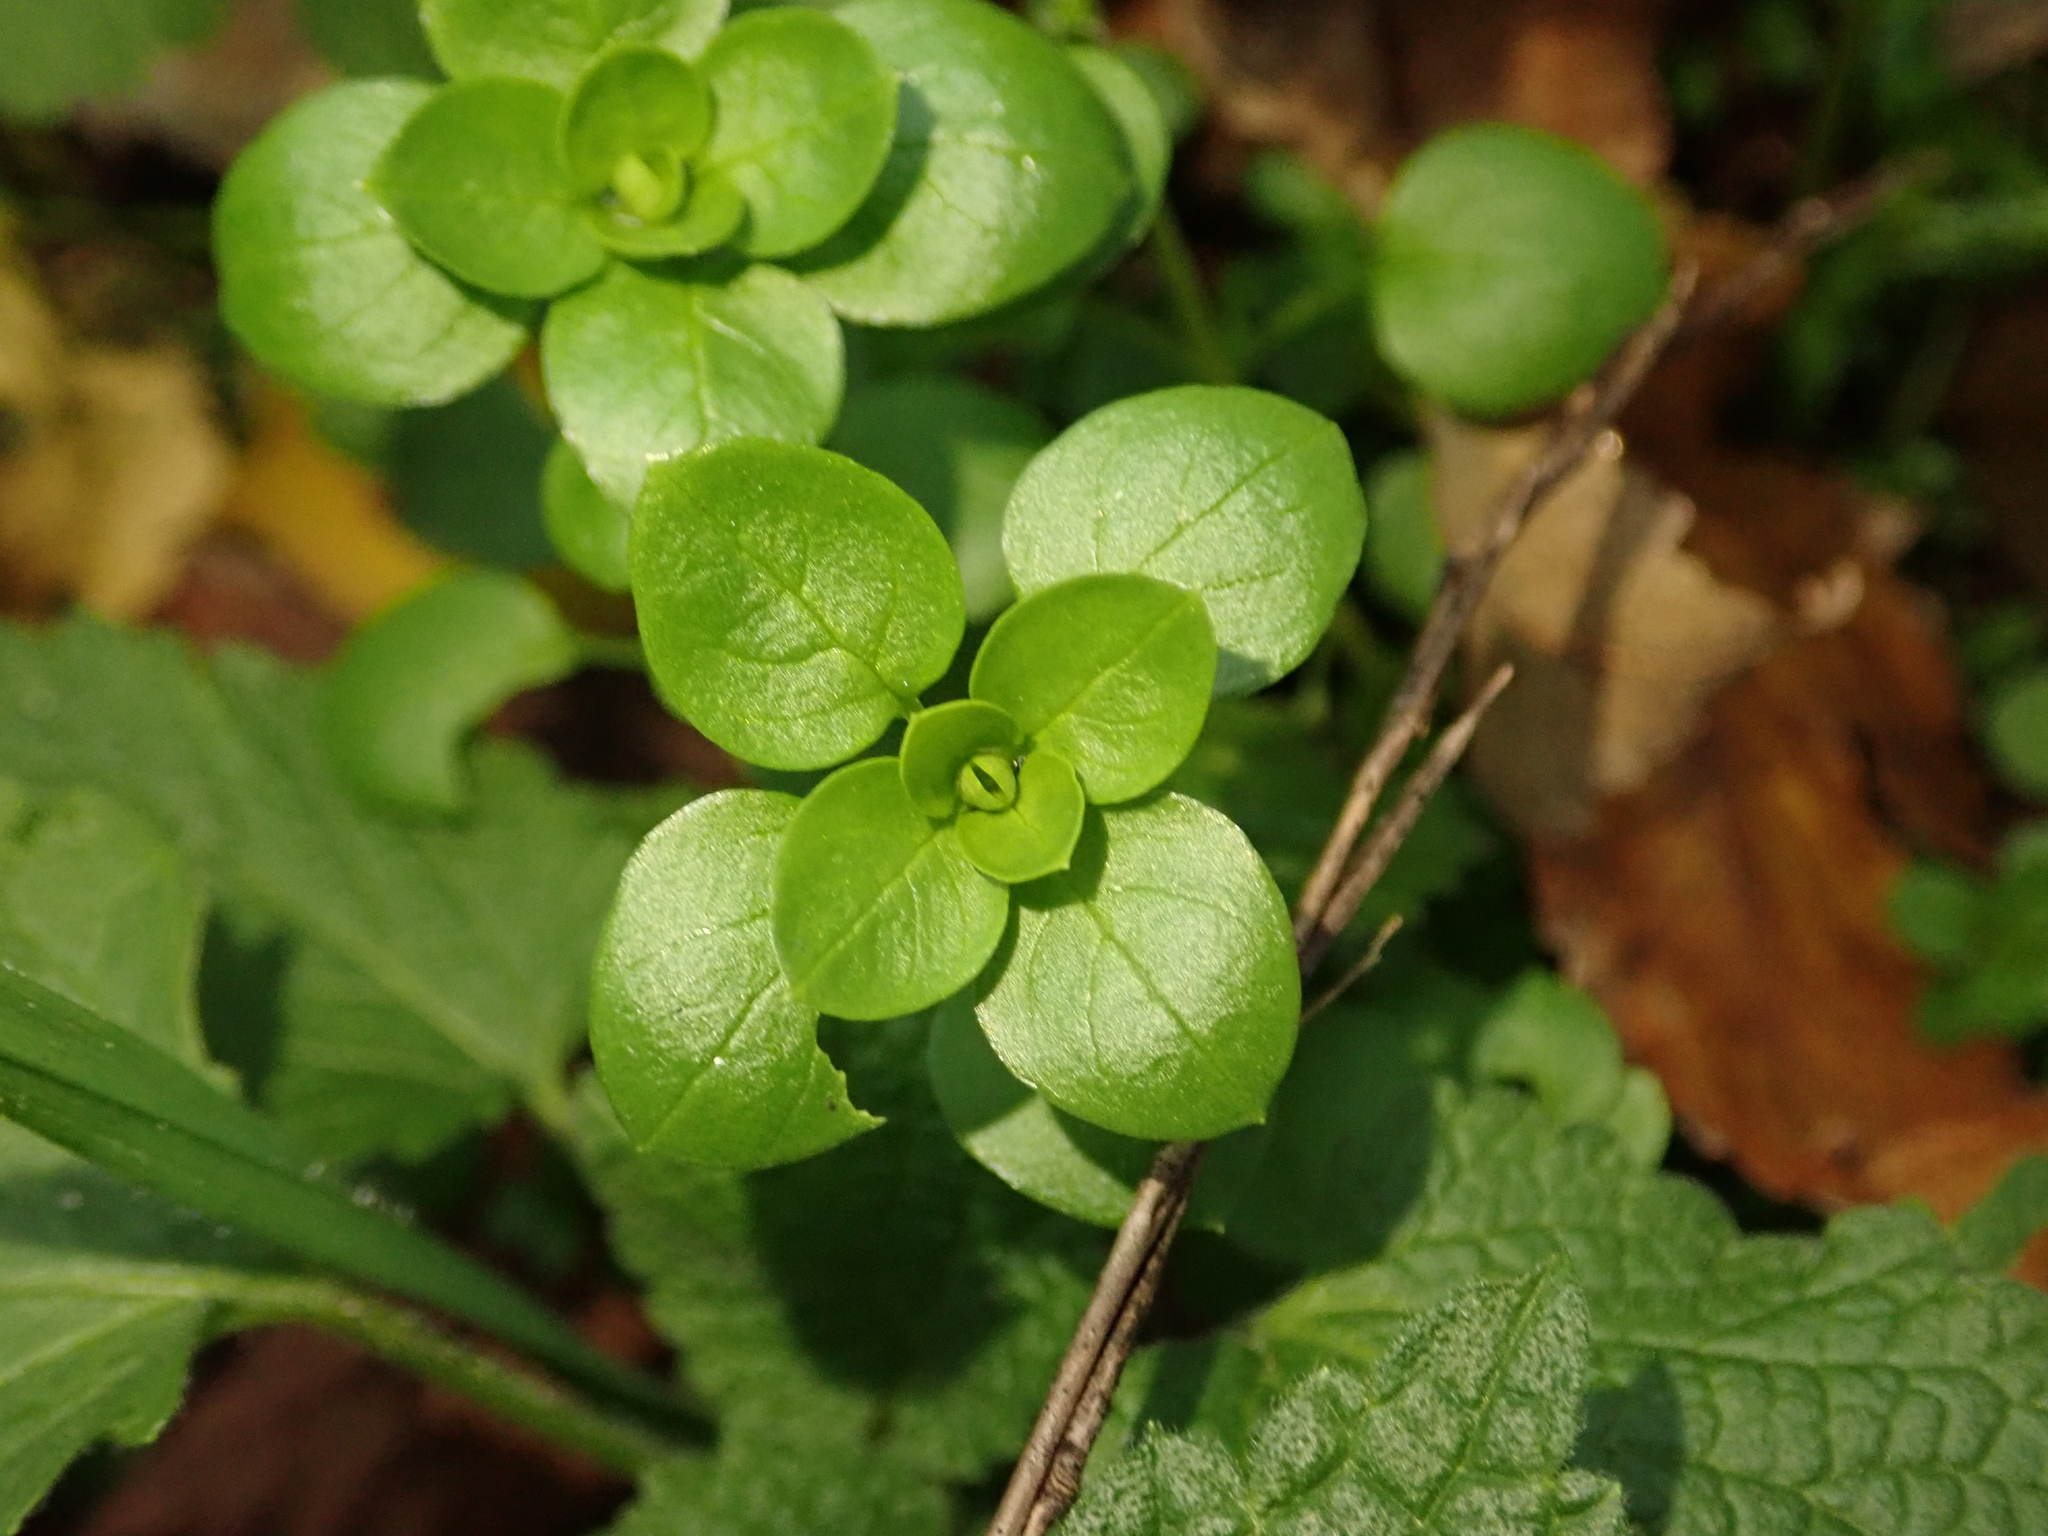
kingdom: Plantae
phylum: Tracheophyta
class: Magnoliopsida
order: Caryophyllales
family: Caryophyllaceae
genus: Stellaria
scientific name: Stellaria media
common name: Common chickweed
